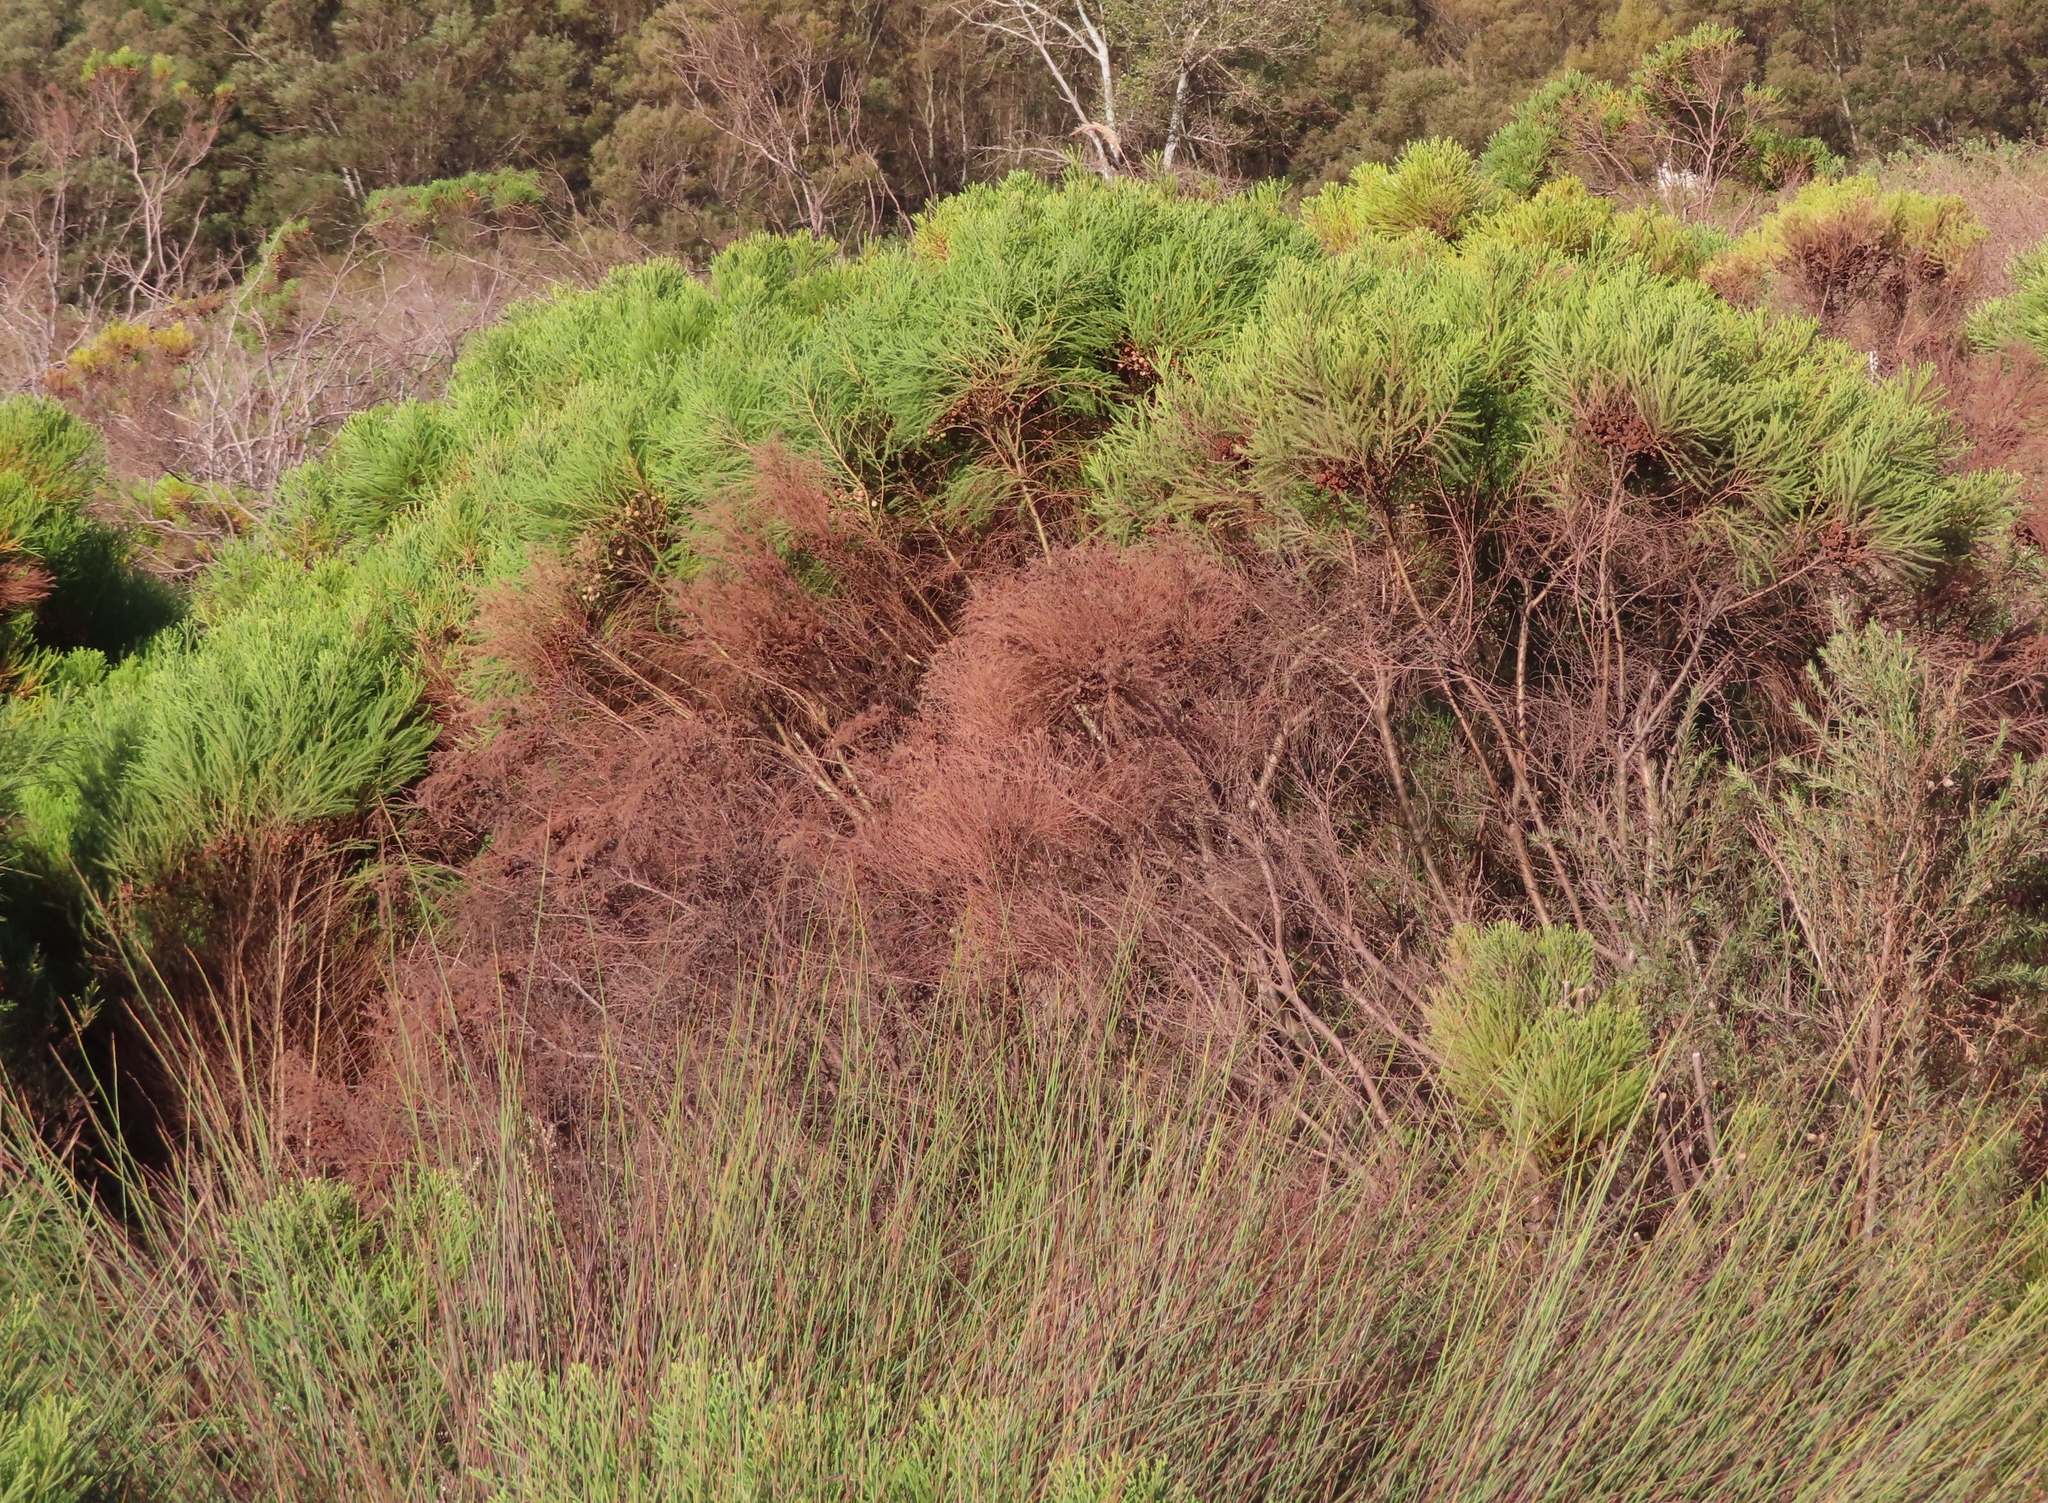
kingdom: Plantae
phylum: Tracheophyta
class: Magnoliopsida
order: Bruniales
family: Bruniaceae
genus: Berzelia
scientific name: Berzelia lanuginosa
